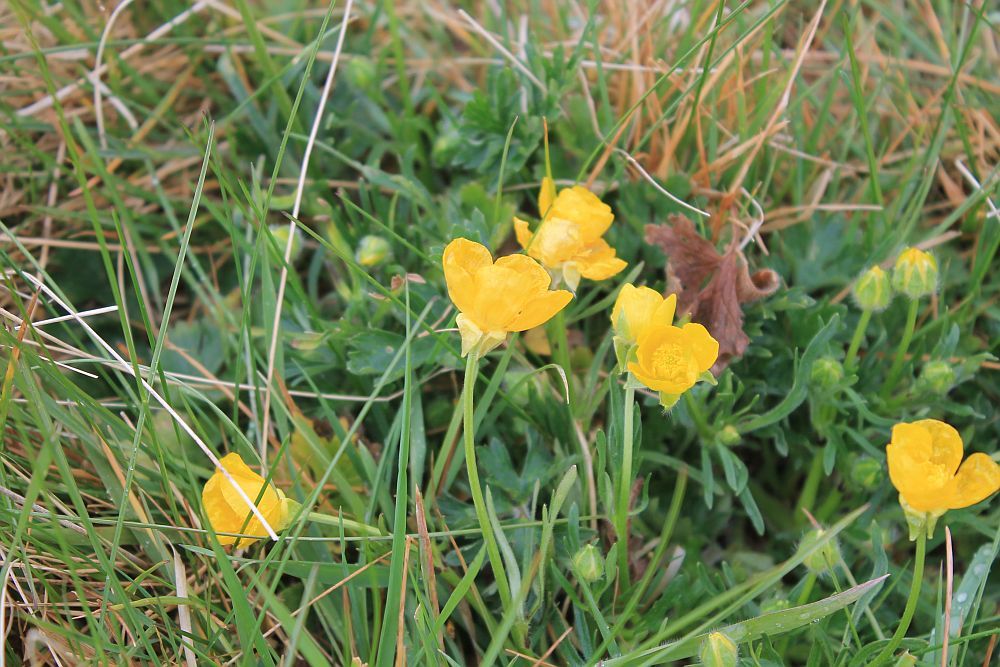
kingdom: Plantae
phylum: Tracheophyta
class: Magnoliopsida
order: Ranunculales
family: Ranunculaceae
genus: Ranunculus
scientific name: Ranunculus bulbosus
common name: Bulbous buttercup
